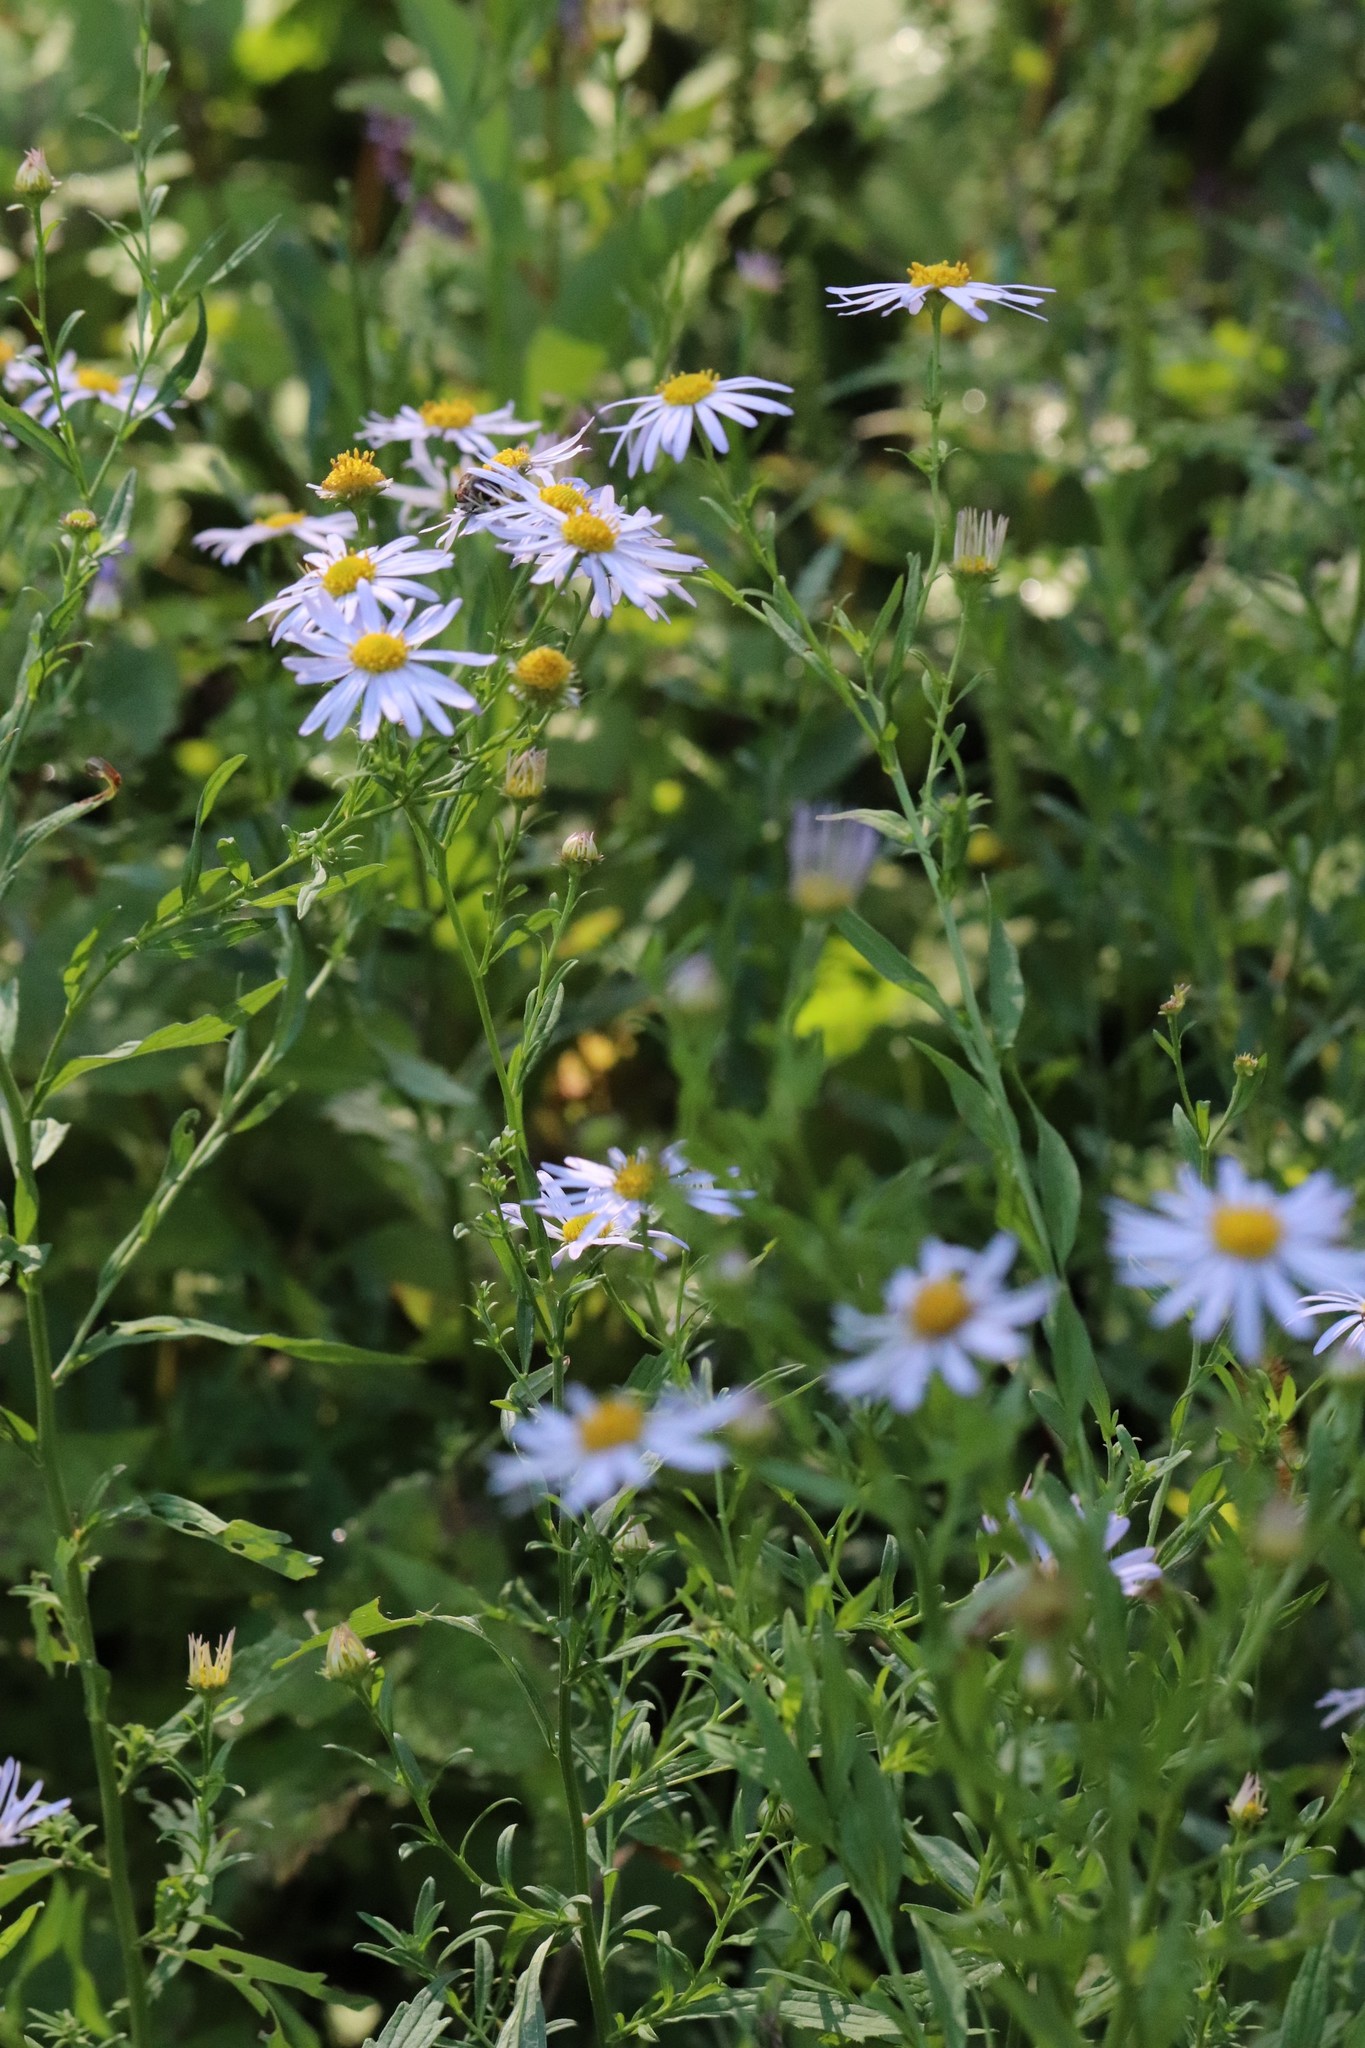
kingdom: Plantae
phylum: Tracheophyta
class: Magnoliopsida
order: Asterales
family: Asteraceae
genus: Kalimeris
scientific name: Kalimeris incisa
